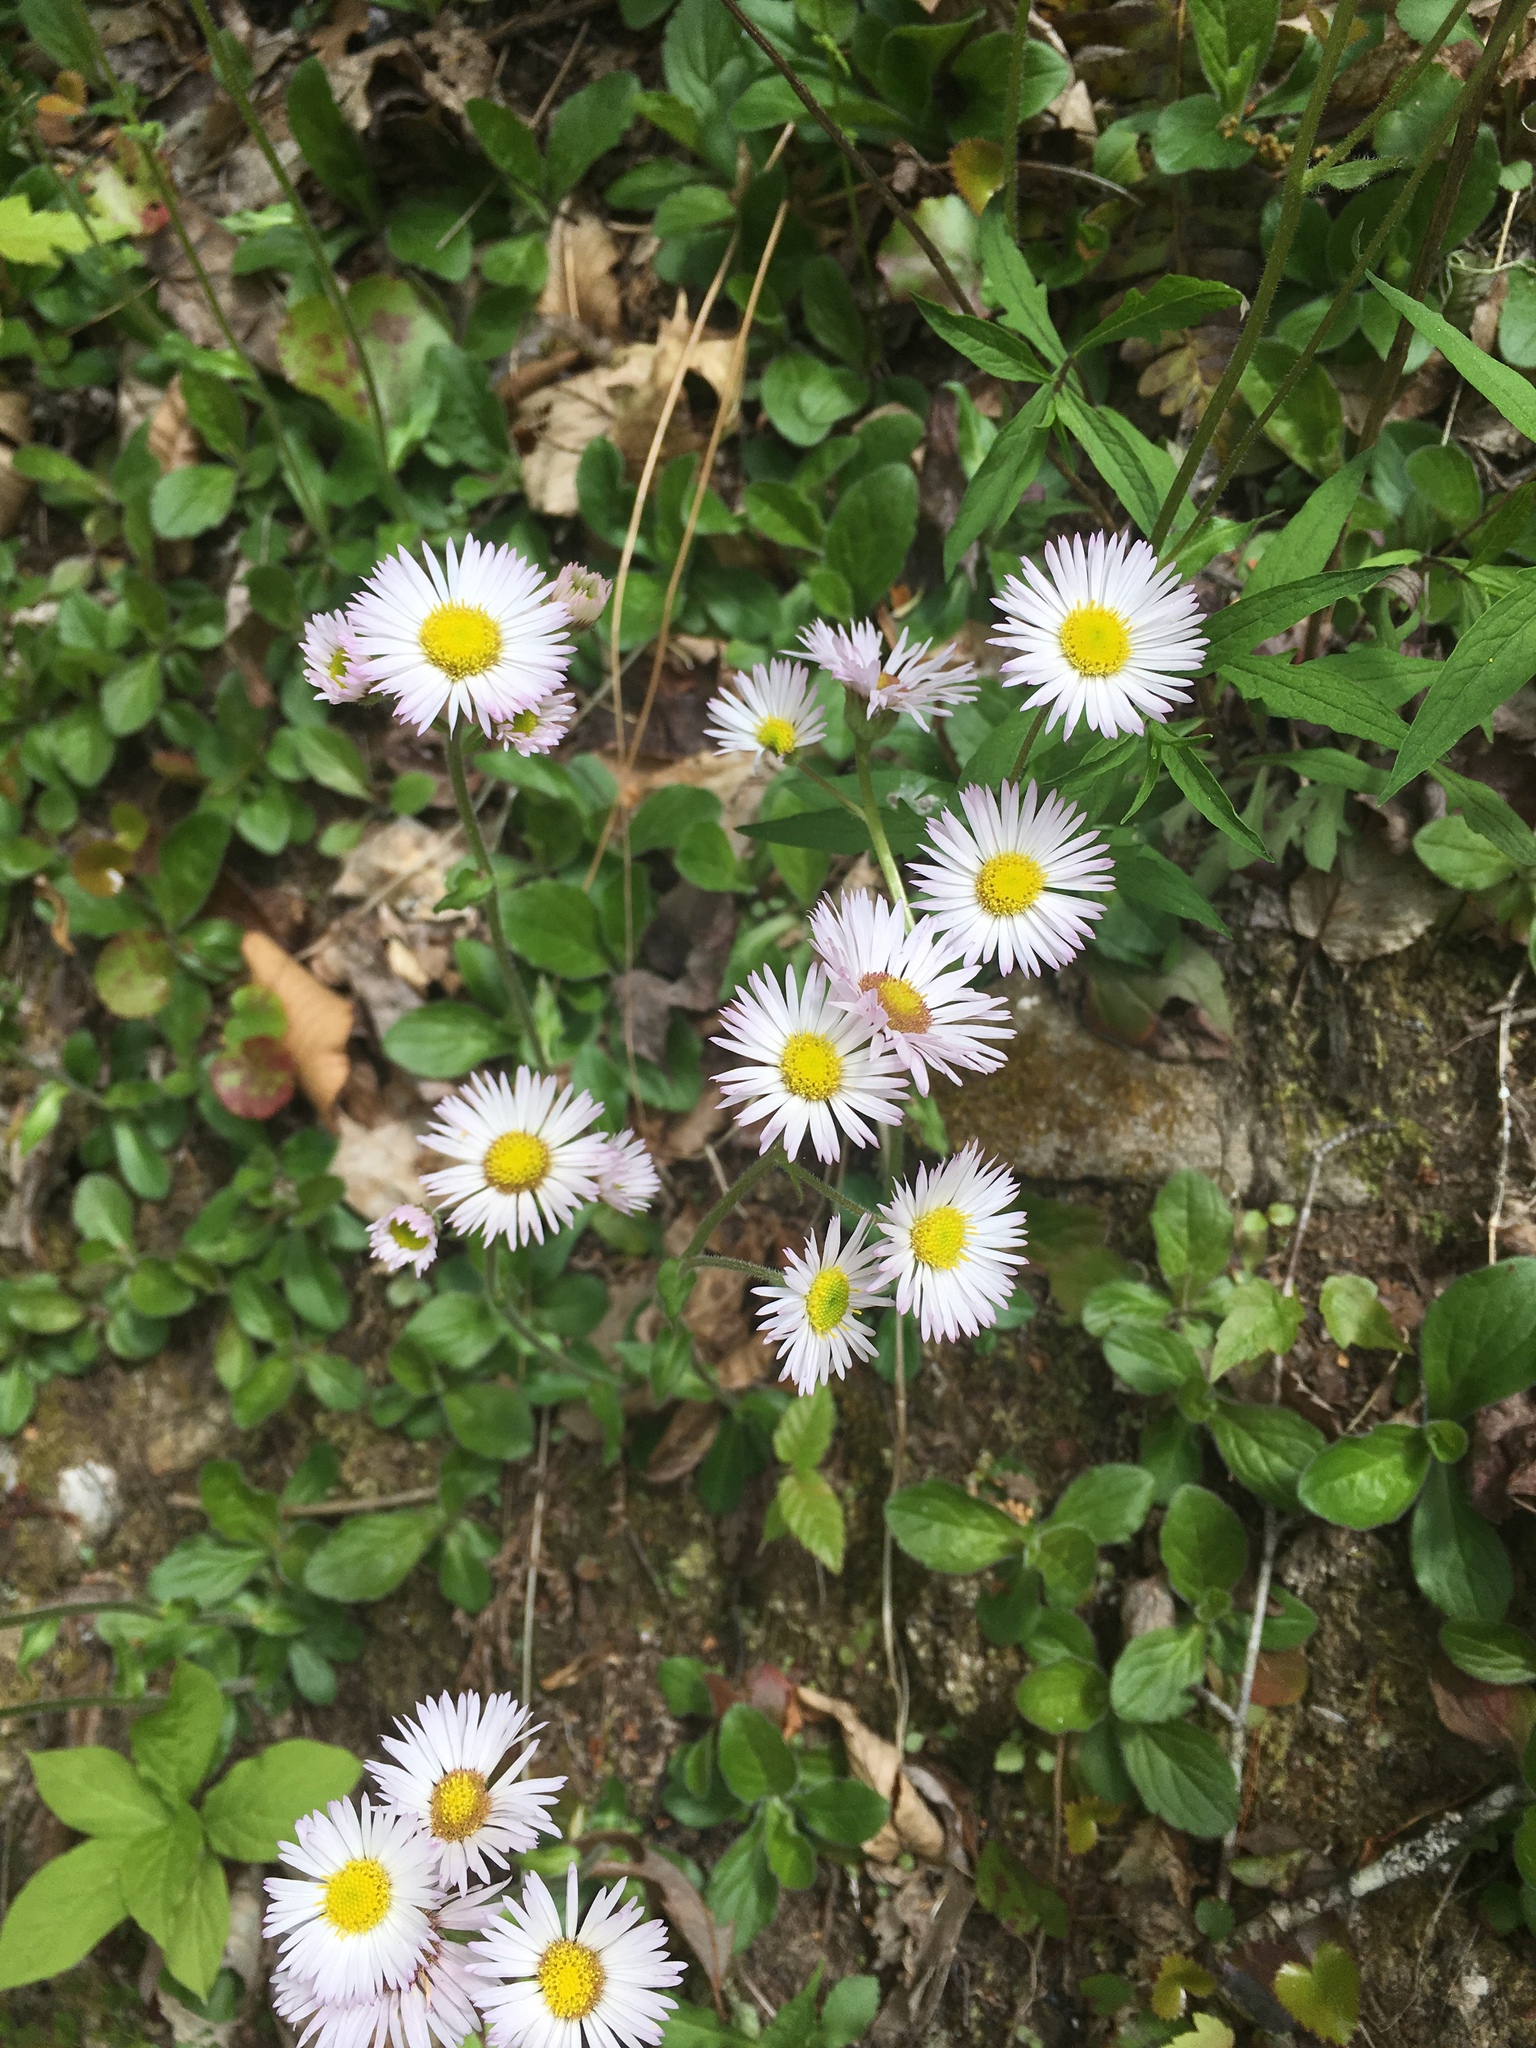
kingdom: Plantae
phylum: Tracheophyta
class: Magnoliopsida
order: Asterales
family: Asteraceae
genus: Erigeron
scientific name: Erigeron pulchellus
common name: Hairy fleabane
